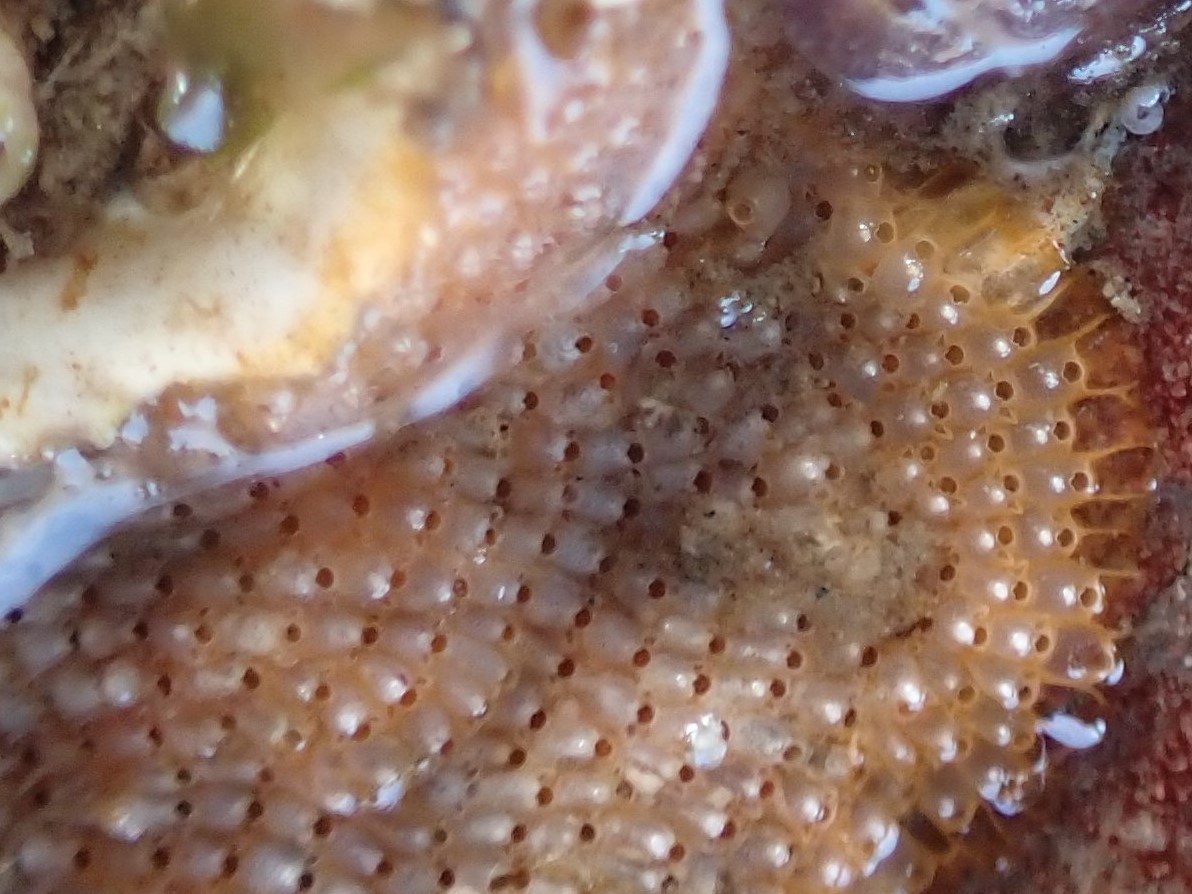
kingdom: Animalia
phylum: Bryozoa
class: Gymnolaemata
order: Cheilostomatida
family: Schizoporellidae
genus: Schizoporella
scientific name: Schizoporella unicornis
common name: Single horn bryozoan
